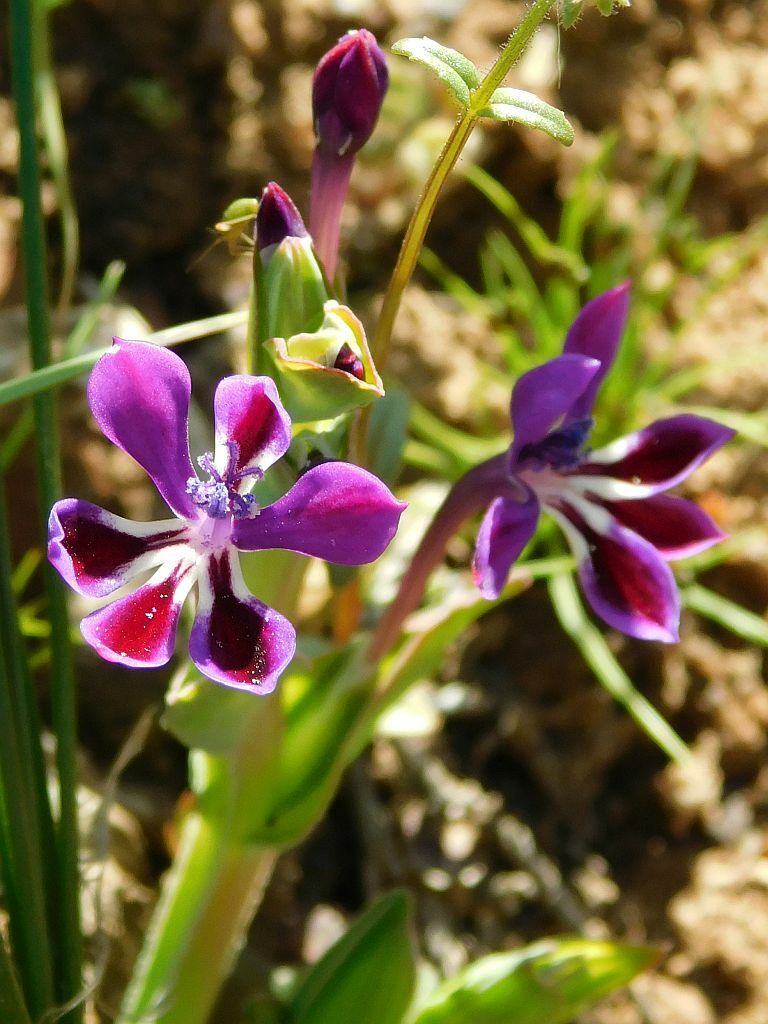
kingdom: Plantae
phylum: Tracheophyta
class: Liliopsida
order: Asparagales
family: Iridaceae
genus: Lapeirousia
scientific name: Lapeirousia jacquinii
